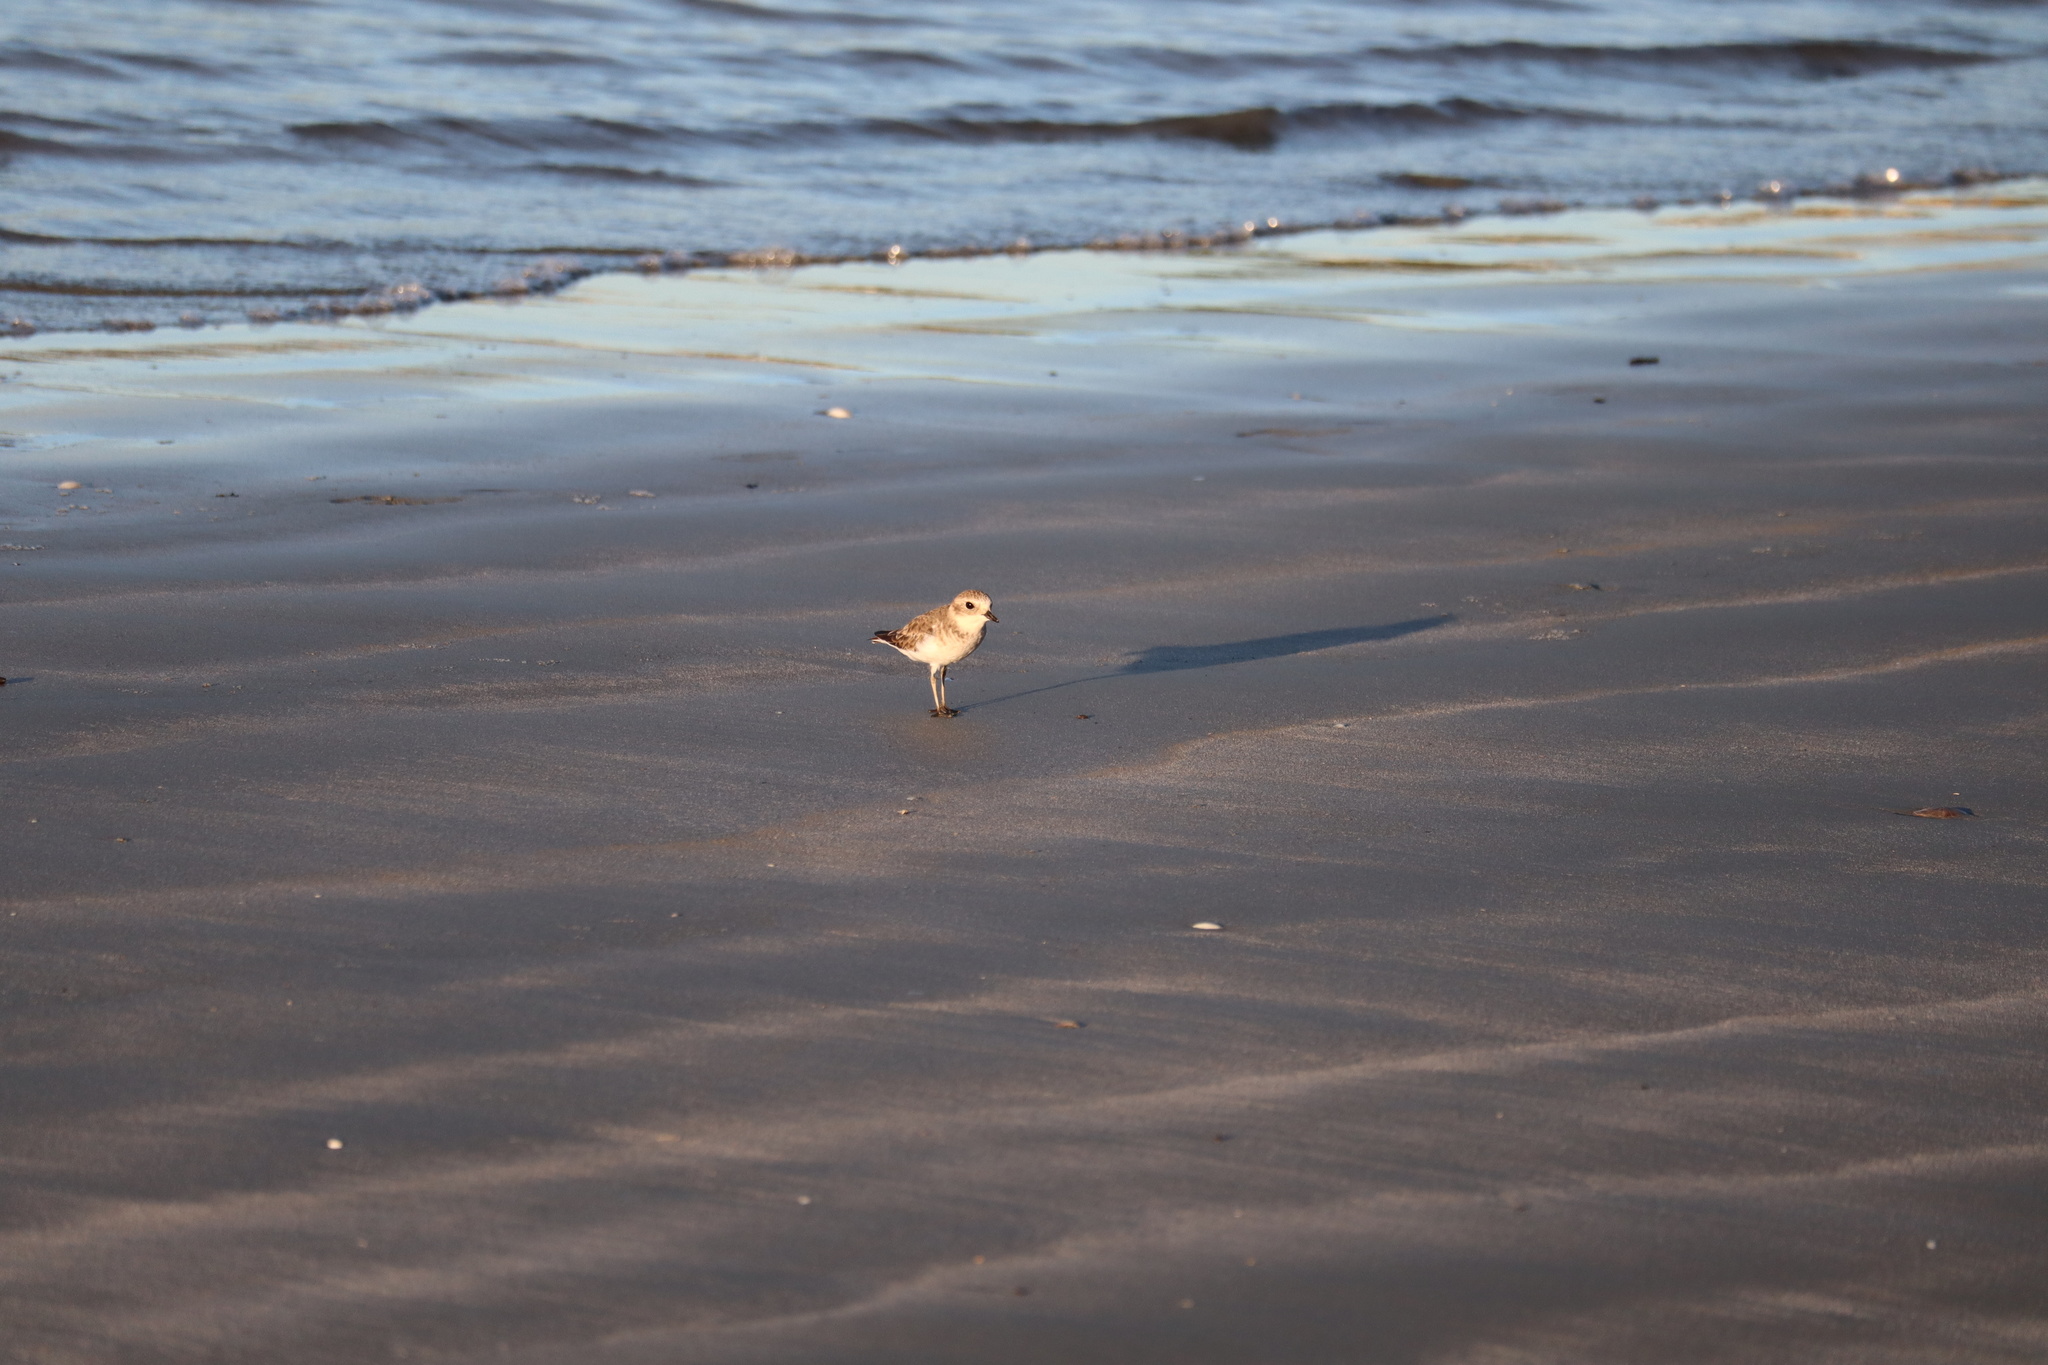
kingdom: Animalia
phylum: Chordata
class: Aves
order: Charadriiformes
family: Charadriidae
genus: Anarhynchus
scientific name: Anarhynchus
